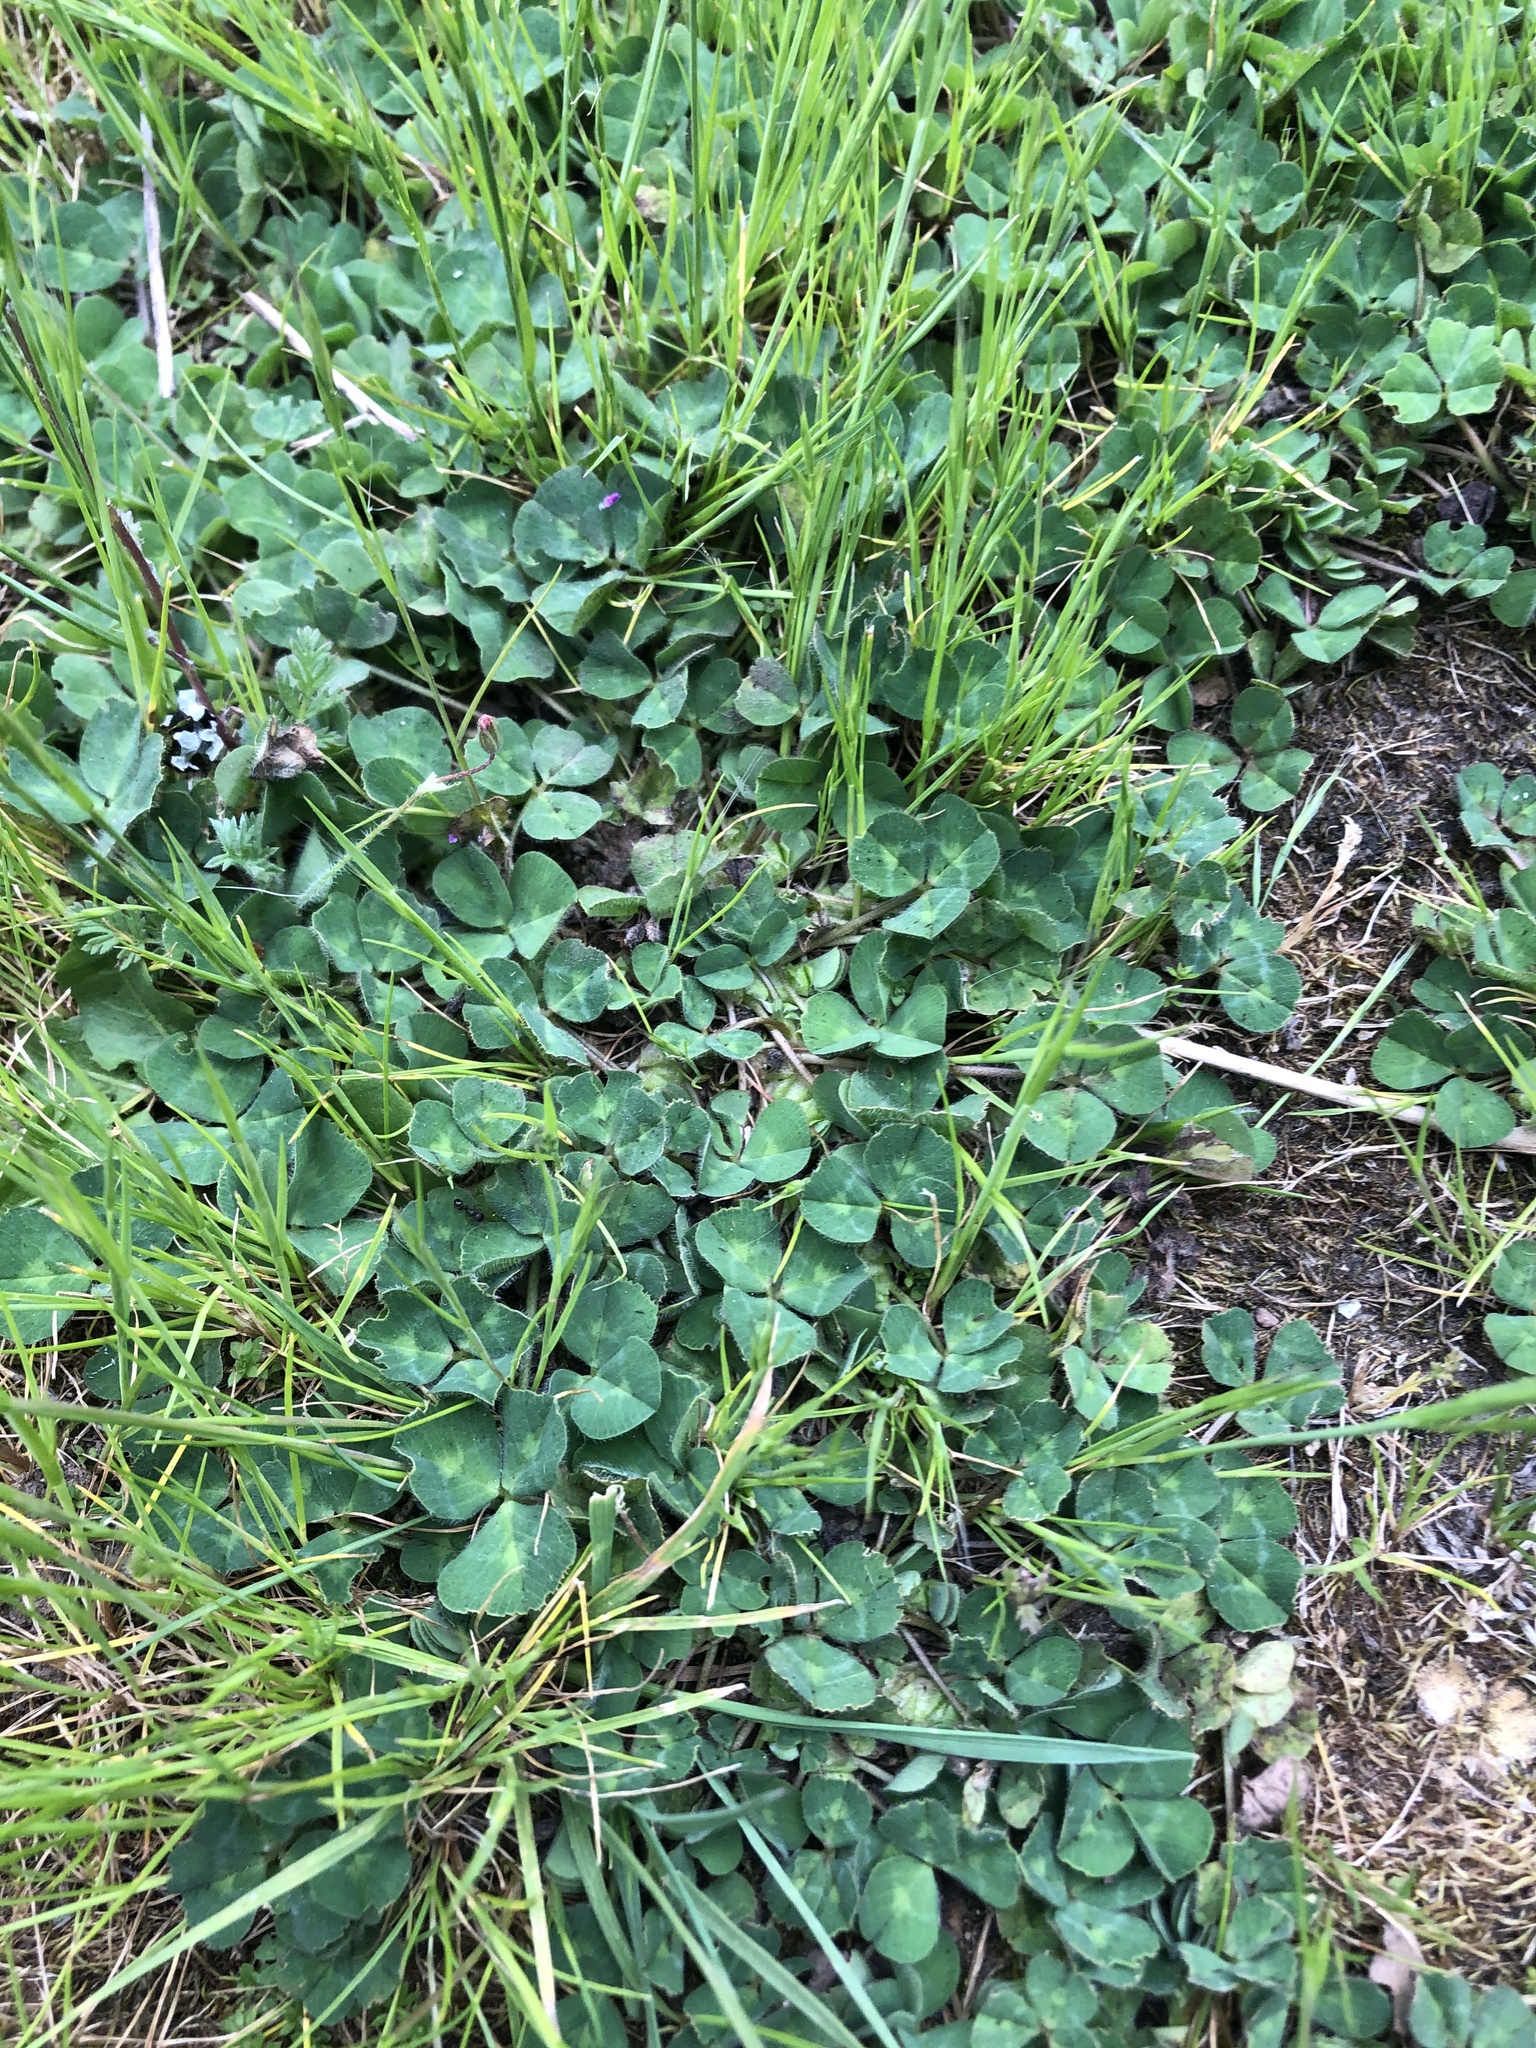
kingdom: Plantae
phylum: Tracheophyta
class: Magnoliopsida
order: Fabales
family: Fabaceae
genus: Trifolium
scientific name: Trifolium subterraneum
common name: Subterranean clover
